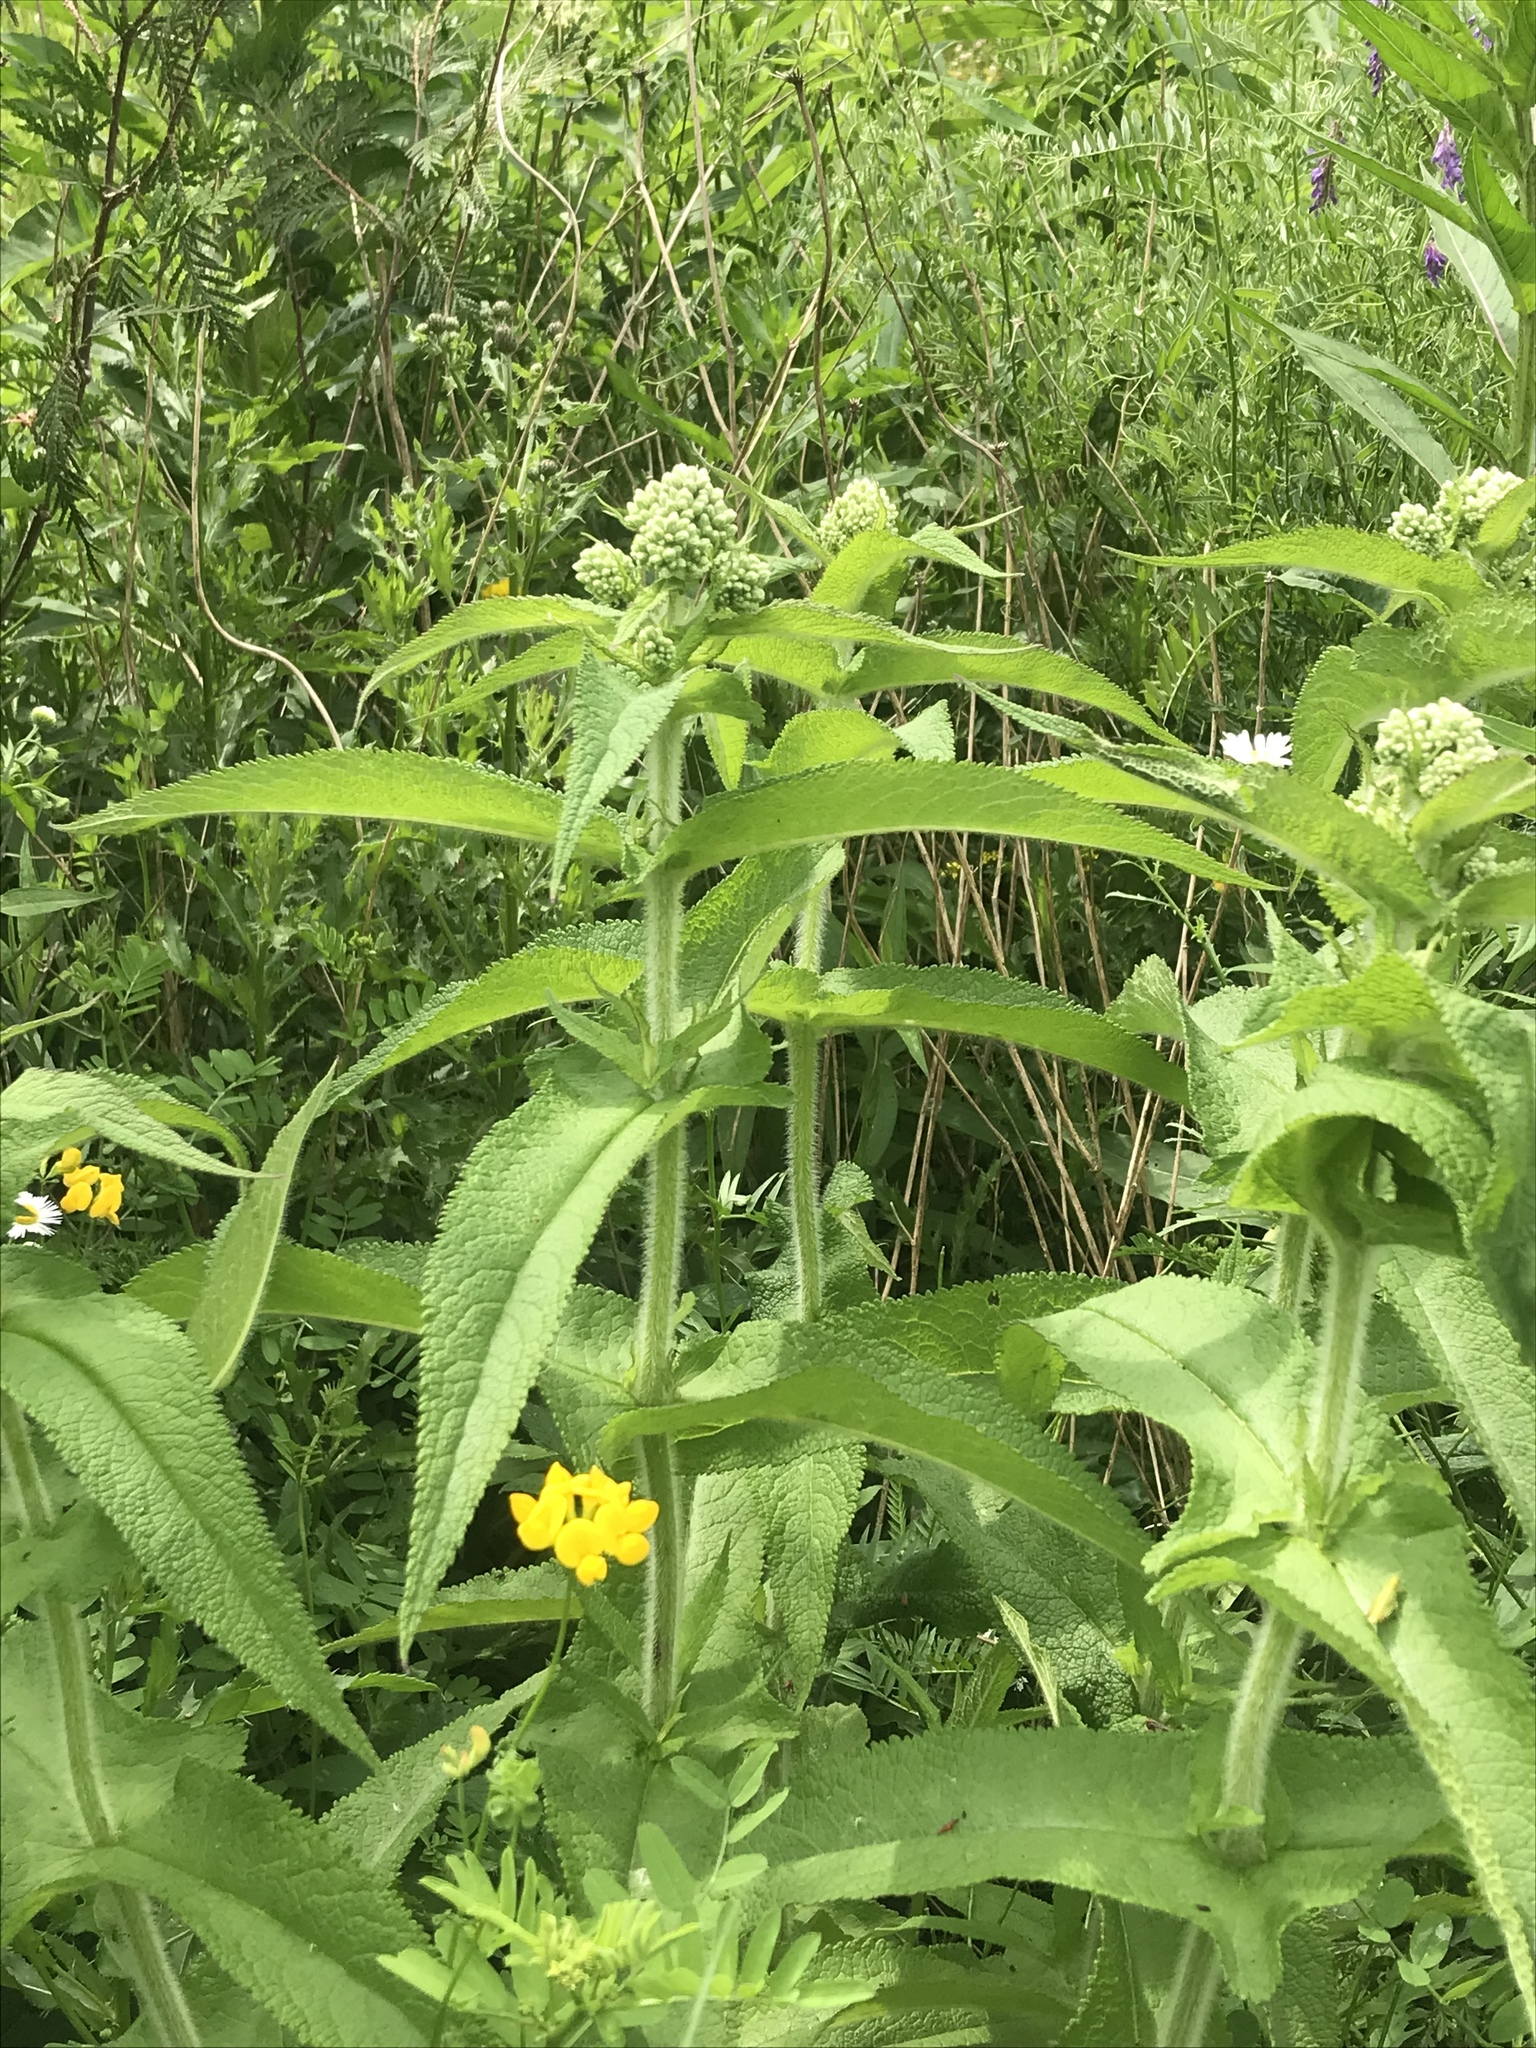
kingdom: Plantae
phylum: Tracheophyta
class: Magnoliopsida
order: Asterales
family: Asteraceae
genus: Eupatorium
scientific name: Eupatorium perfoliatum
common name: Boneset
